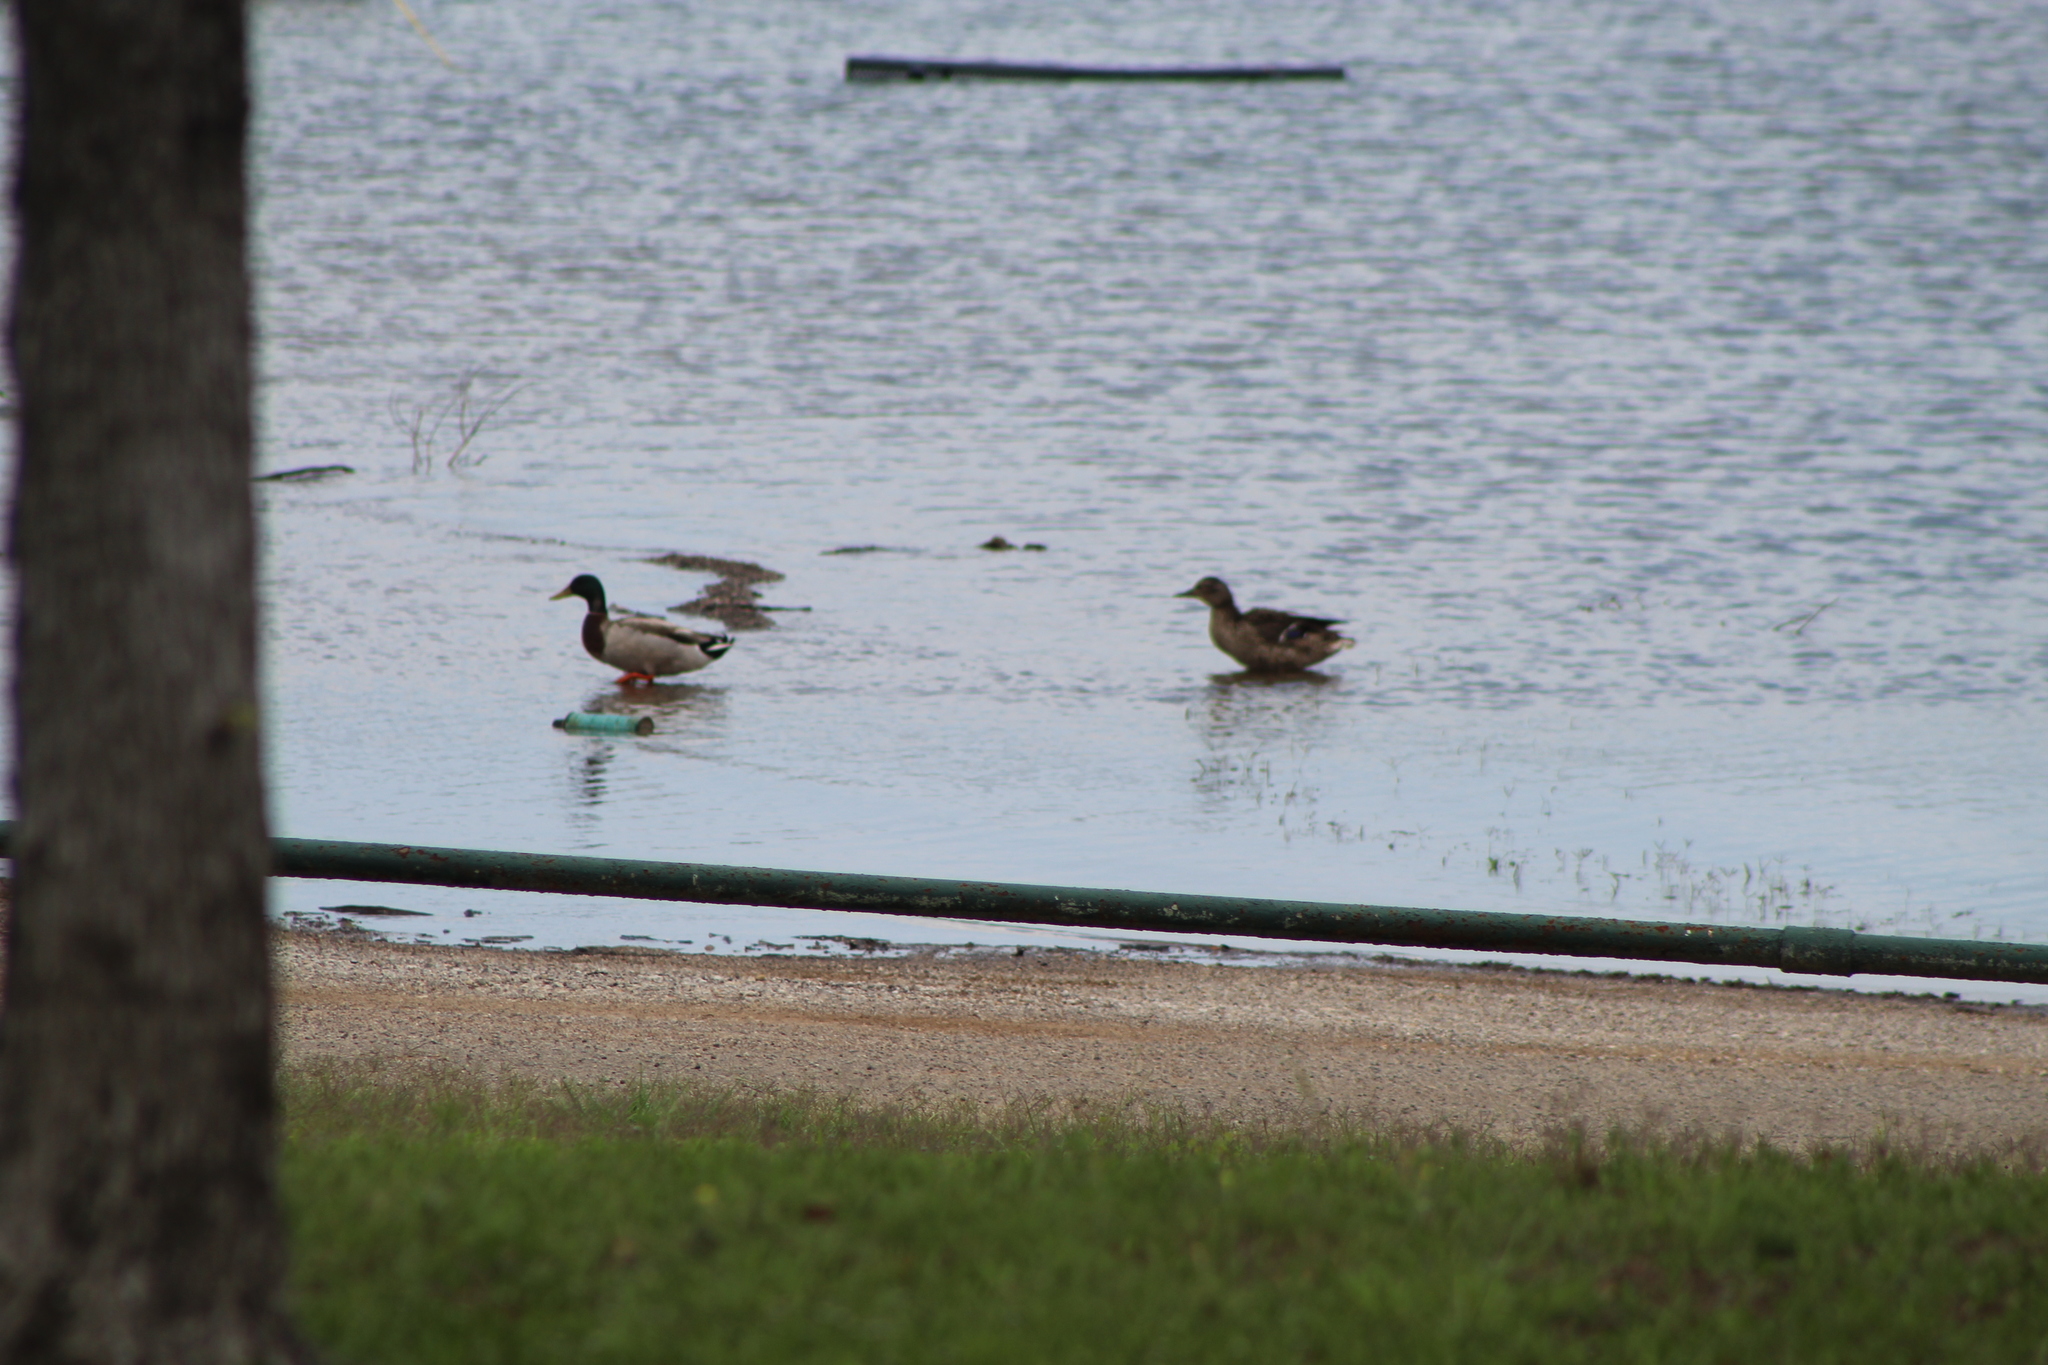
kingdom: Animalia
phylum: Chordata
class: Aves
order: Anseriformes
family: Anatidae
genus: Anas
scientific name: Anas platyrhynchos
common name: Mallard
